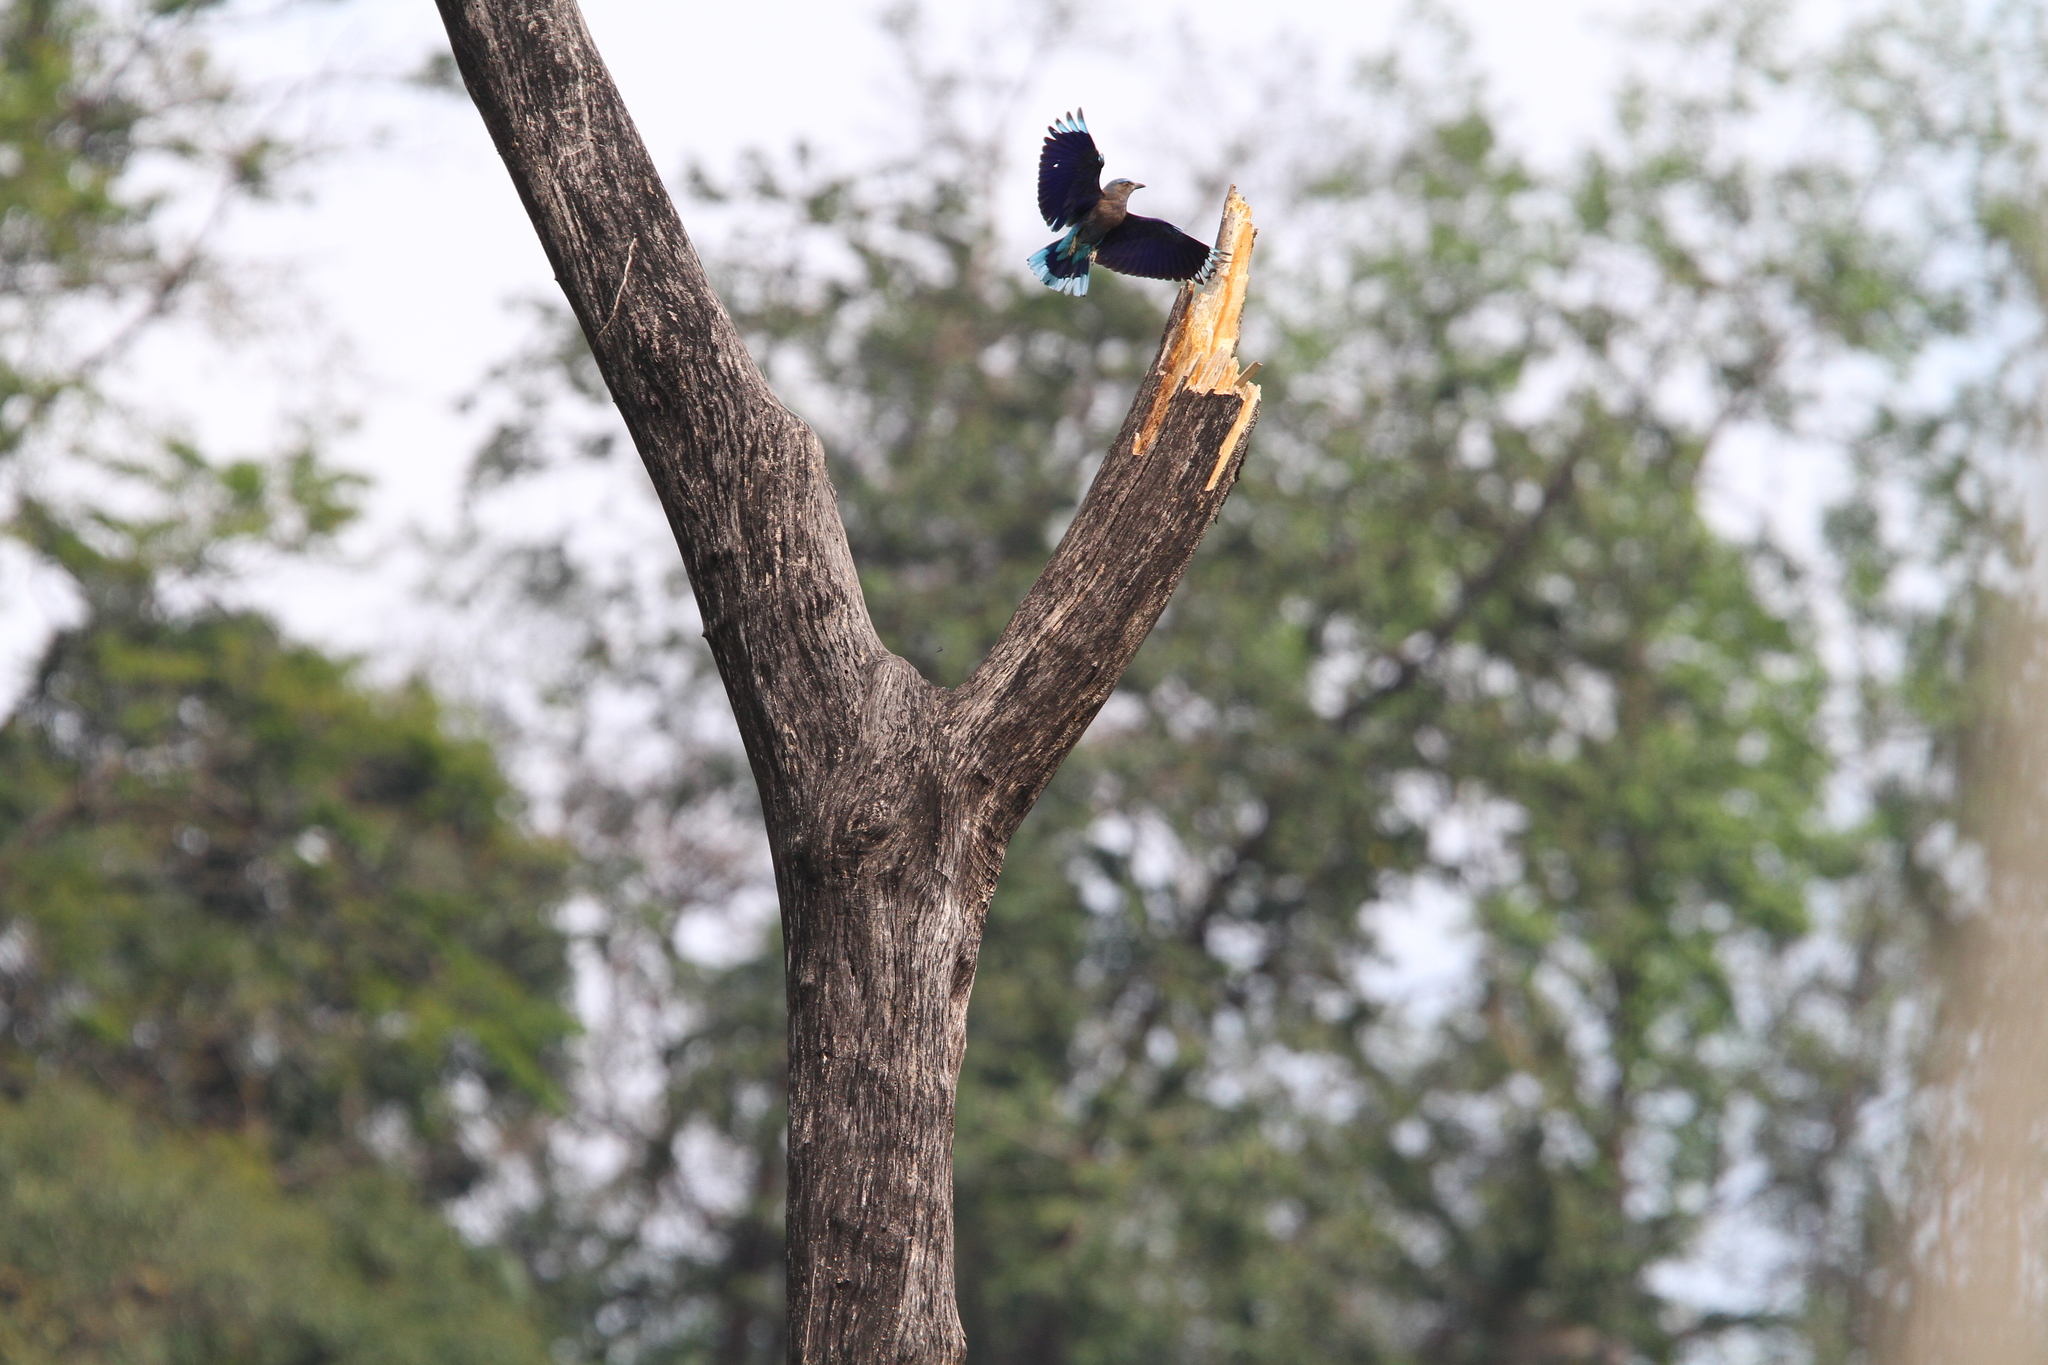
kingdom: Animalia
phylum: Chordata
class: Aves
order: Coraciiformes
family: Coraciidae
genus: Coracias
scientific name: Coracias affinis
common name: Indochinese roller
